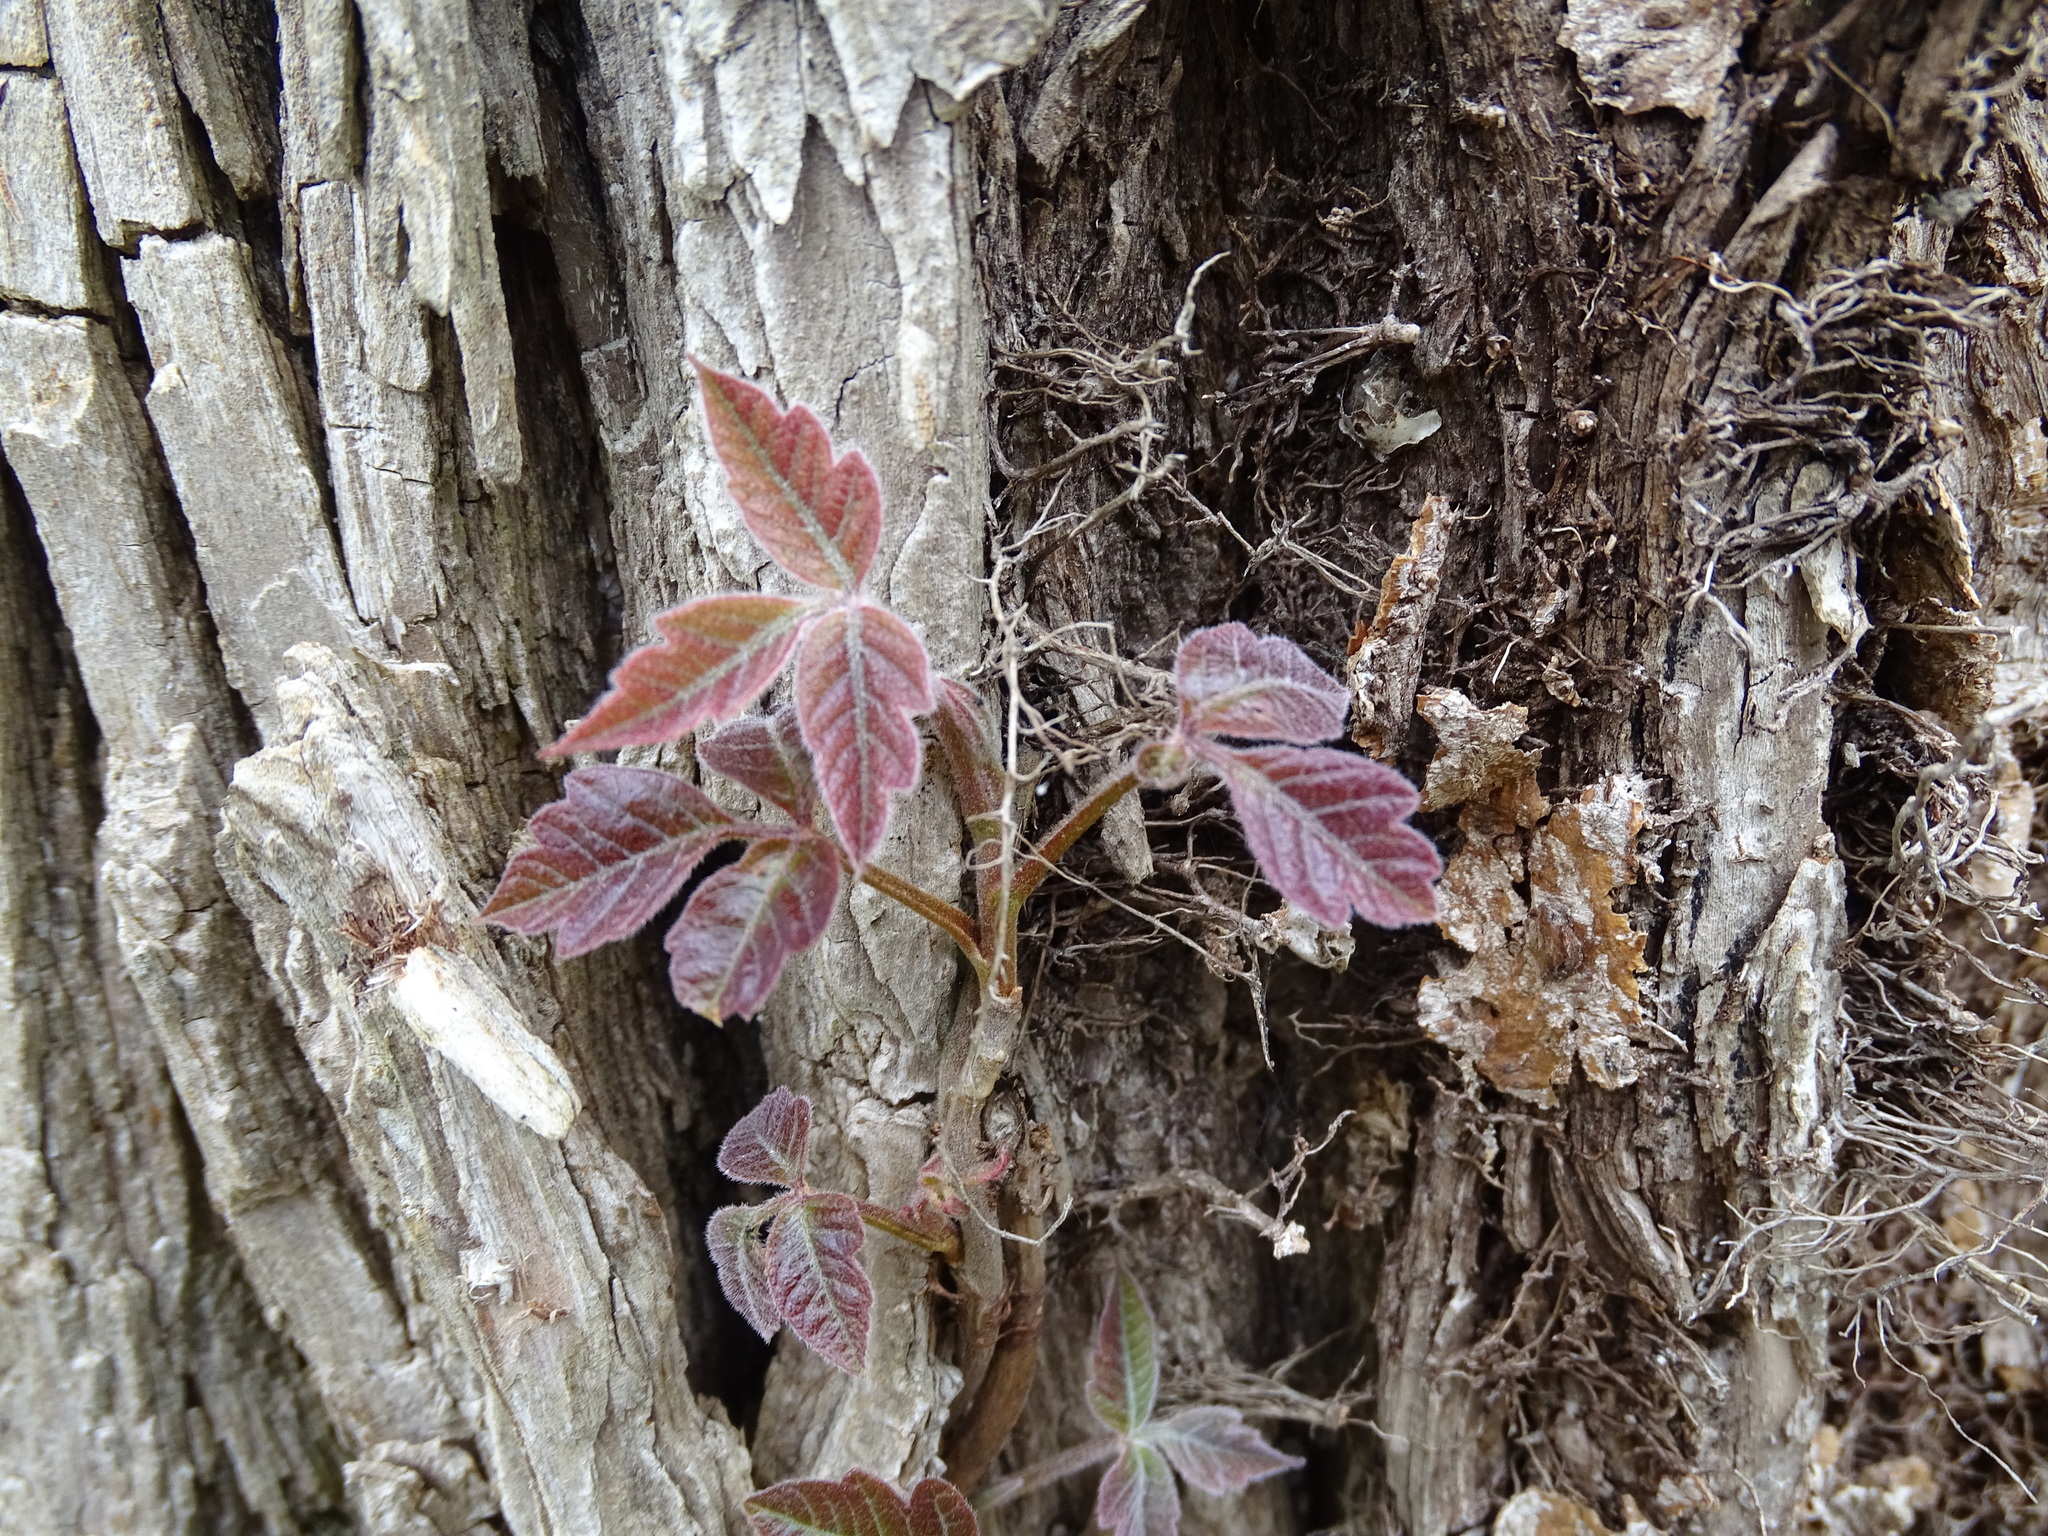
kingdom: Plantae
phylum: Tracheophyta
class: Magnoliopsida
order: Sapindales
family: Anacardiaceae
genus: Toxicodendron
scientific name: Toxicodendron radicans
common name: Poison ivy
